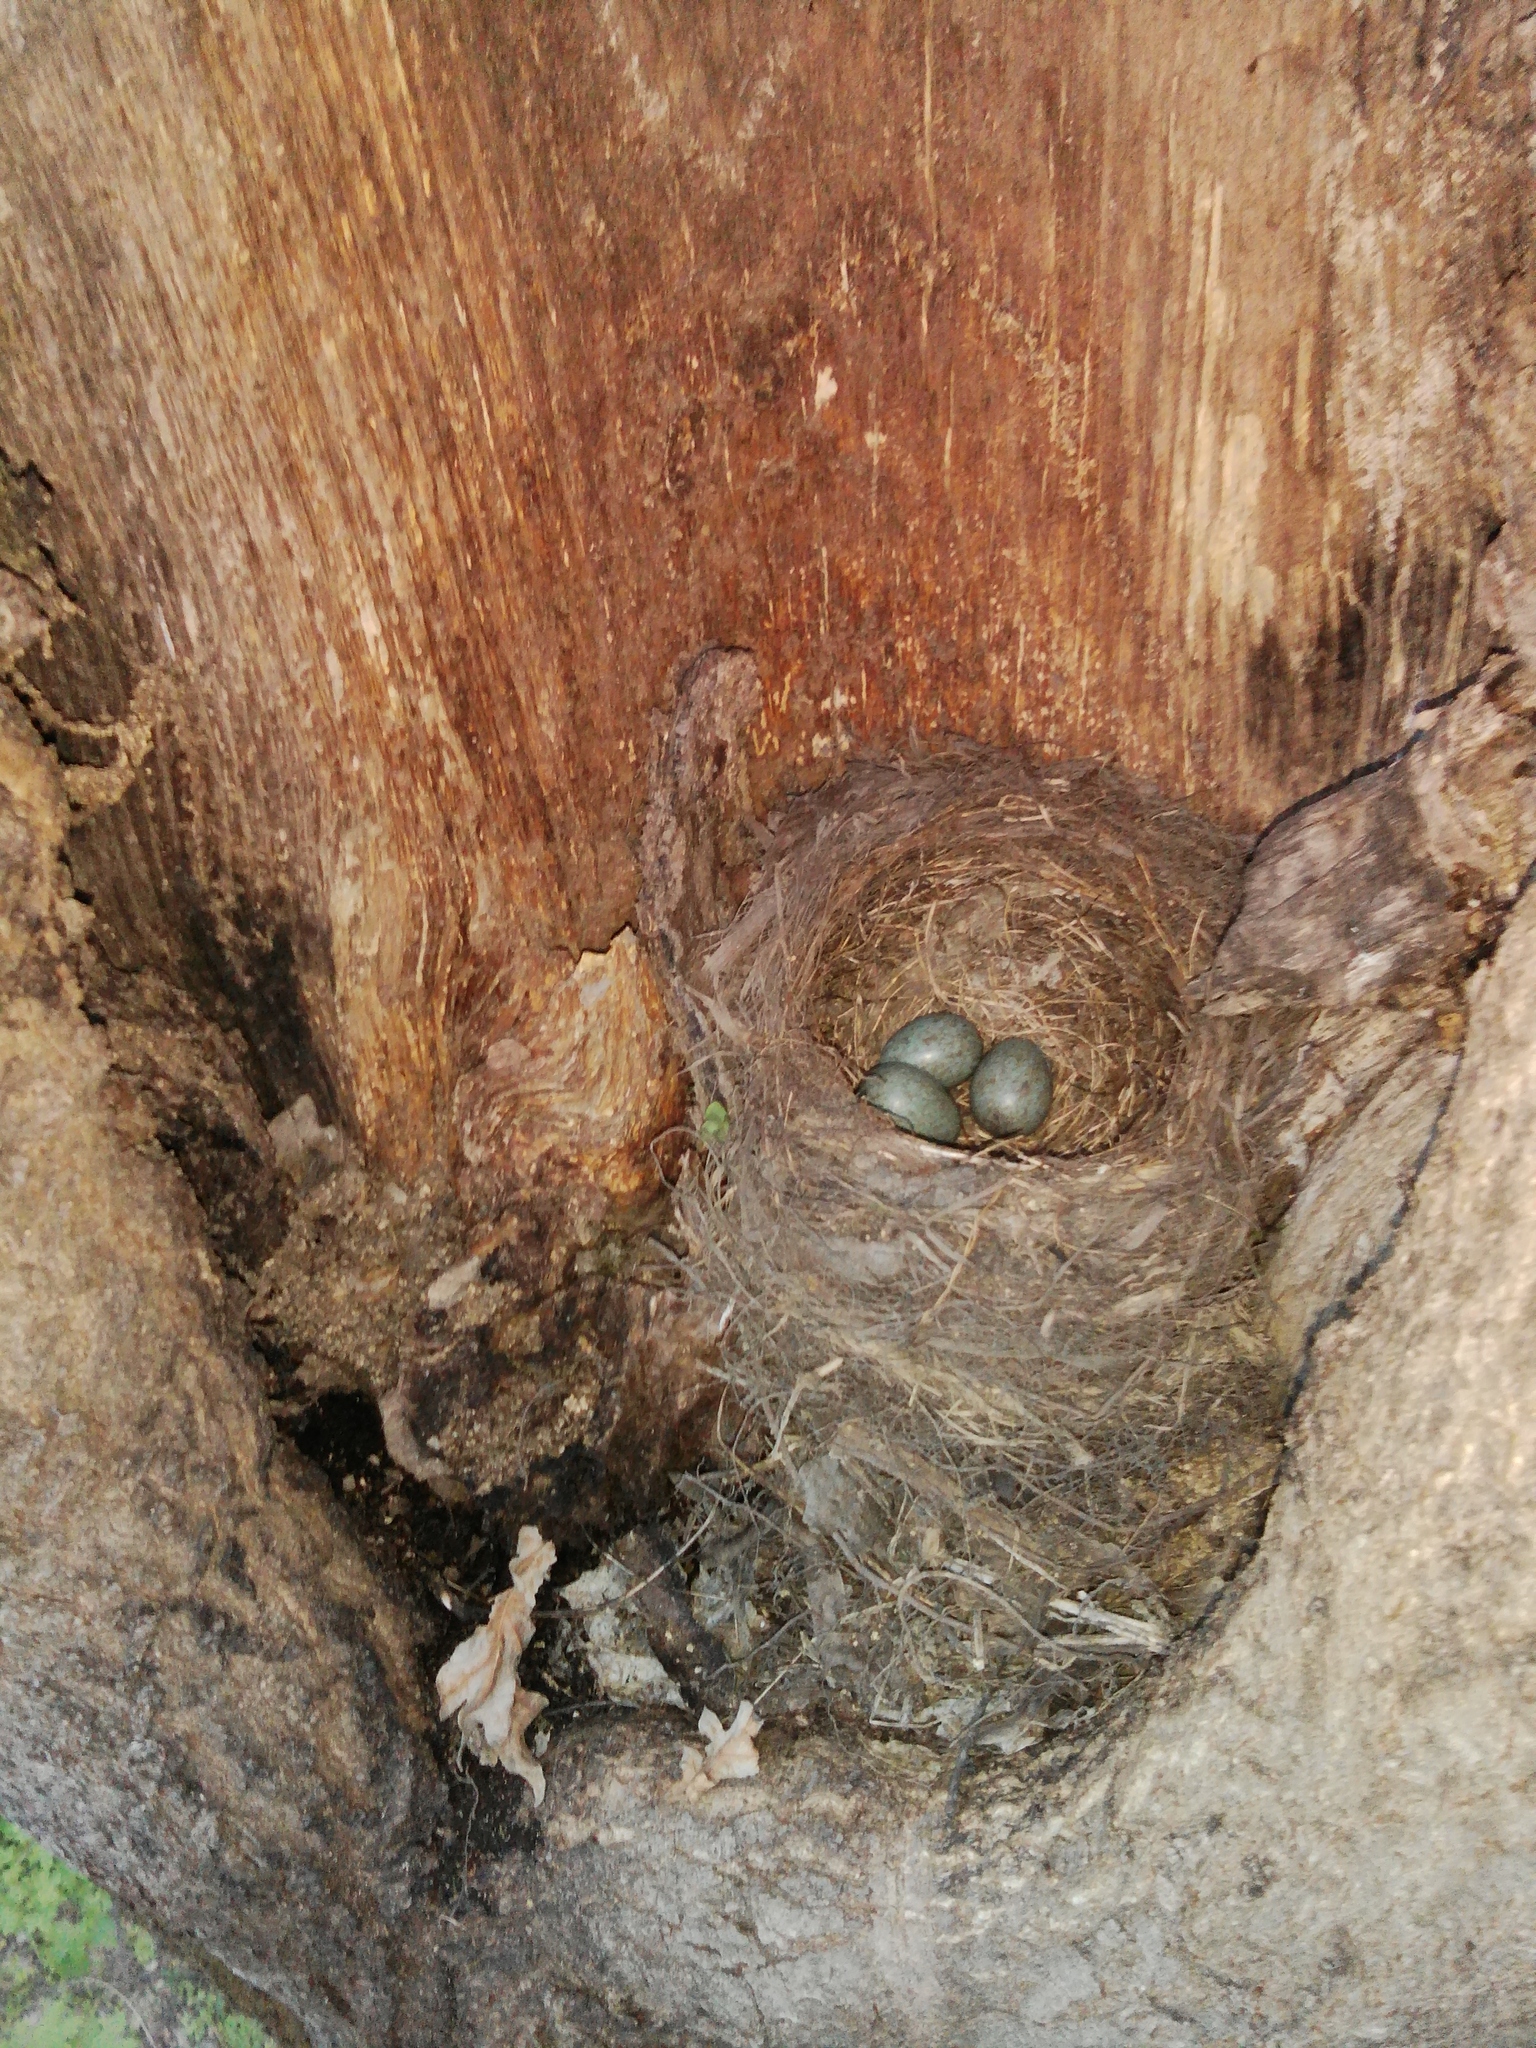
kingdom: Animalia
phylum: Chordata
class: Aves
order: Passeriformes
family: Turdidae
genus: Turdus
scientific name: Turdus merula
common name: Common blackbird
